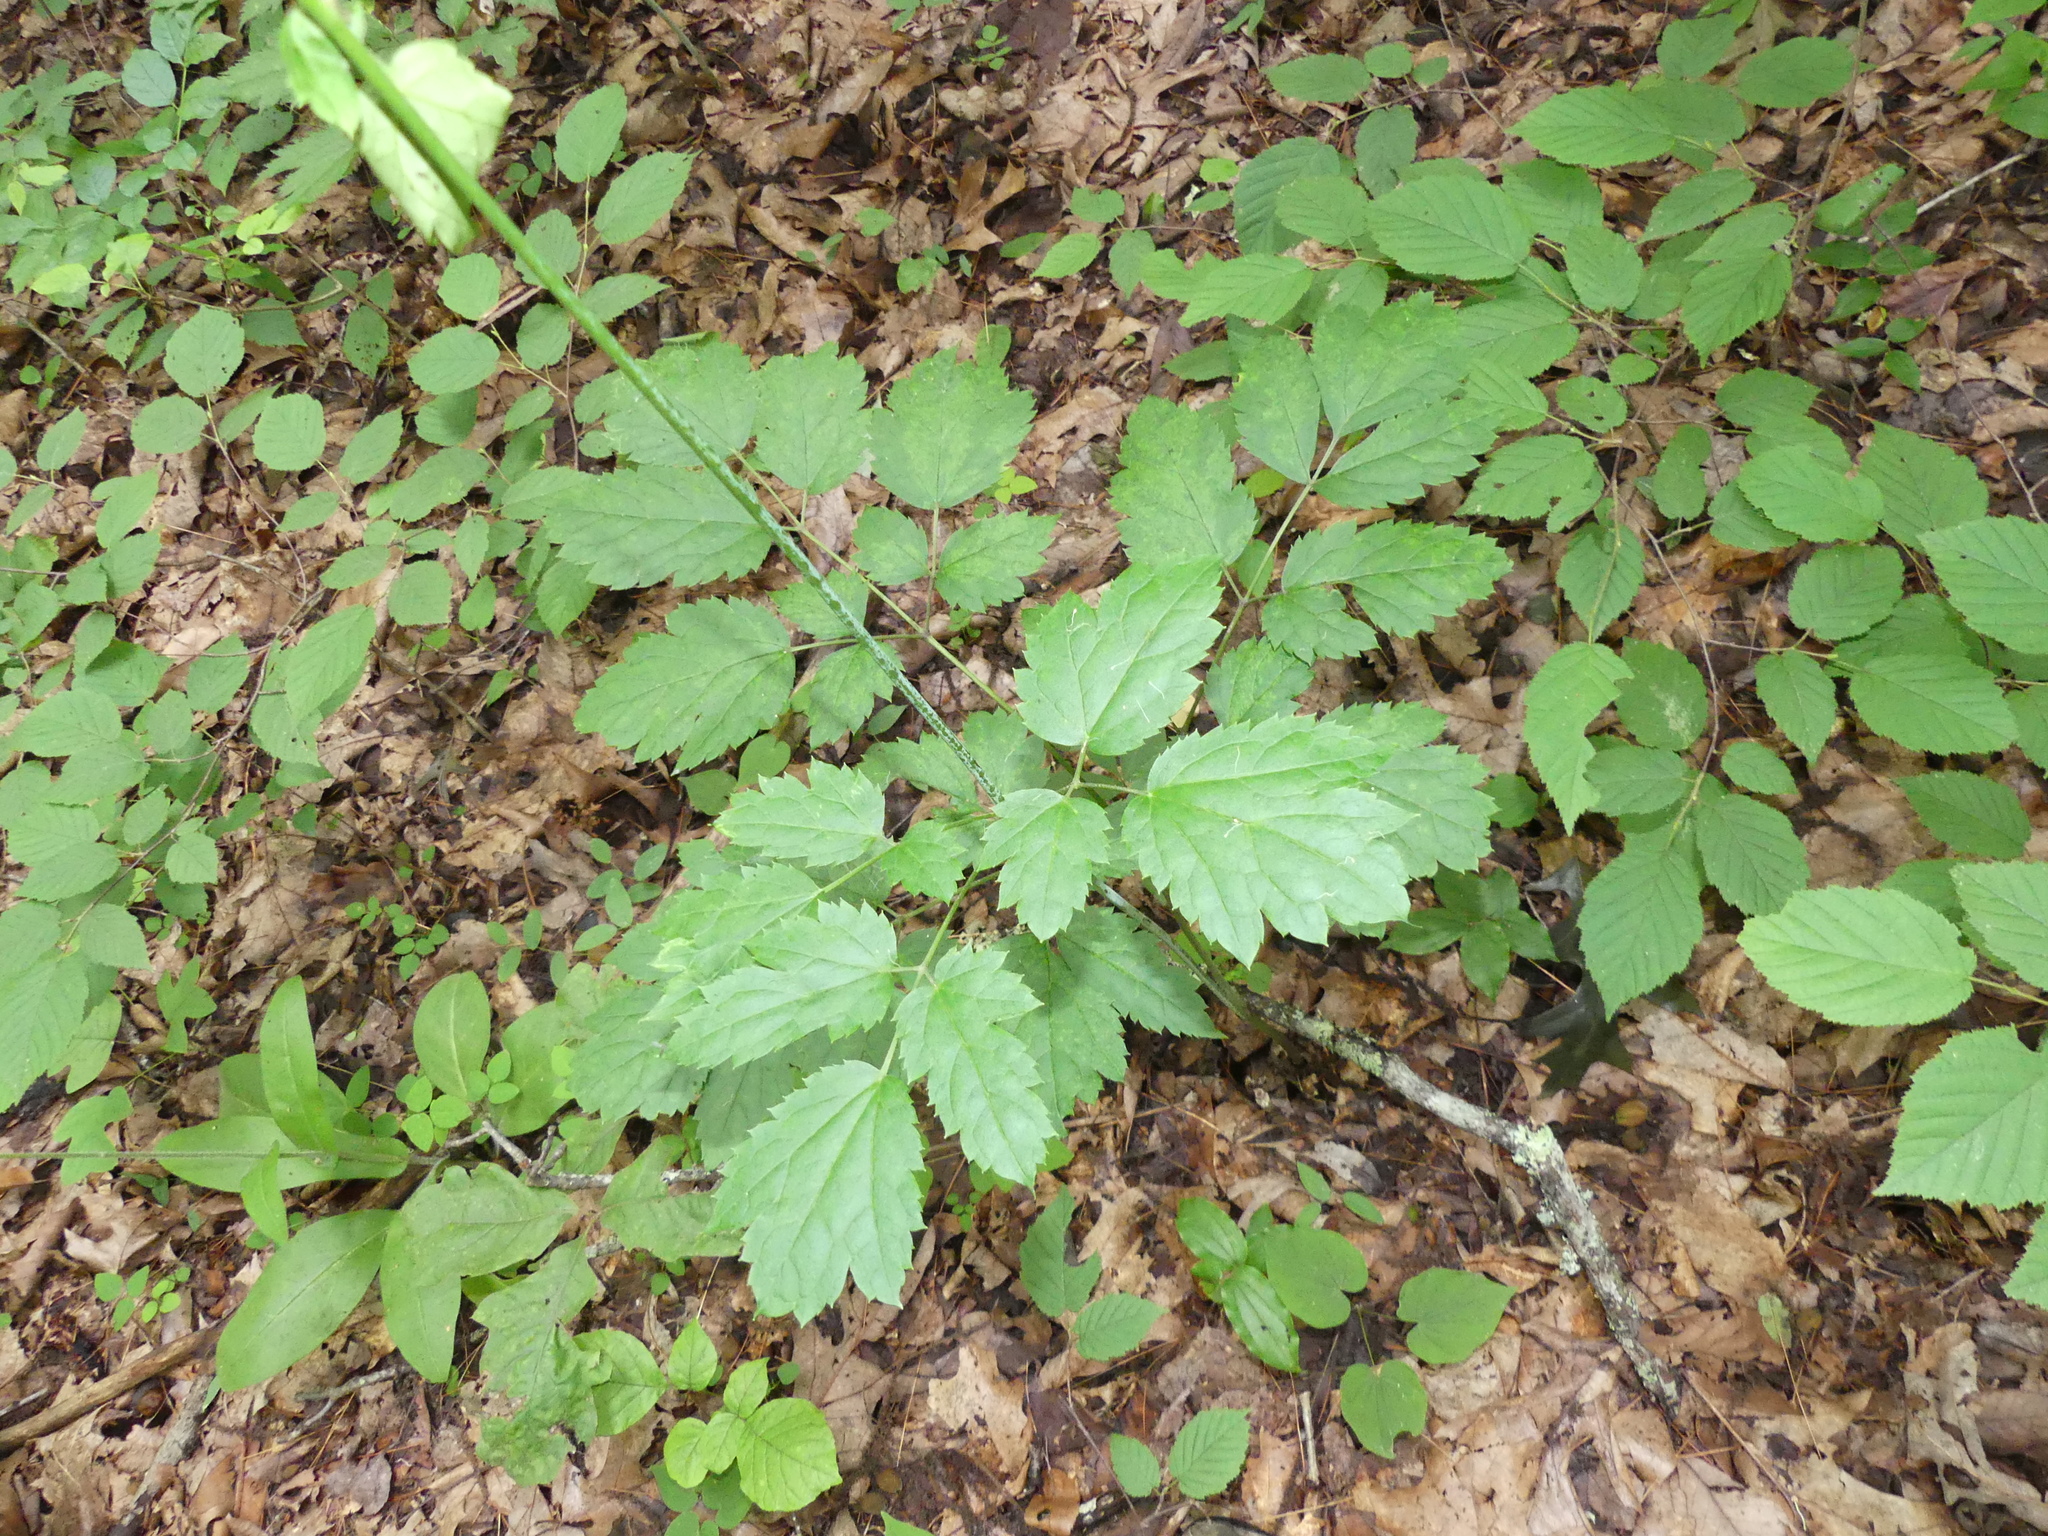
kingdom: Plantae
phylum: Tracheophyta
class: Magnoliopsida
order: Ranunculales
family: Ranunculaceae
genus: Actaea
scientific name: Actaea racemosa
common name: Black cohosh
